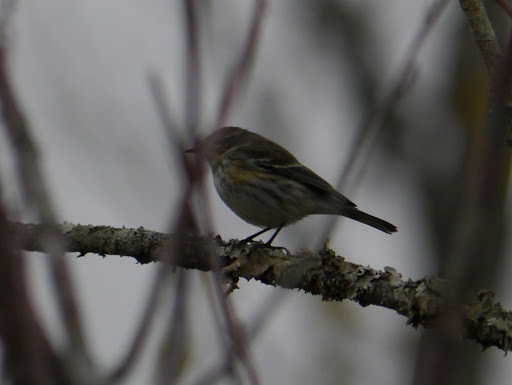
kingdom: Animalia
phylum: Chordata
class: Aves
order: Passeriformes
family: Parulidae
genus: Setophaga
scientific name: Setophaga coronata
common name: Myrtle warbler
